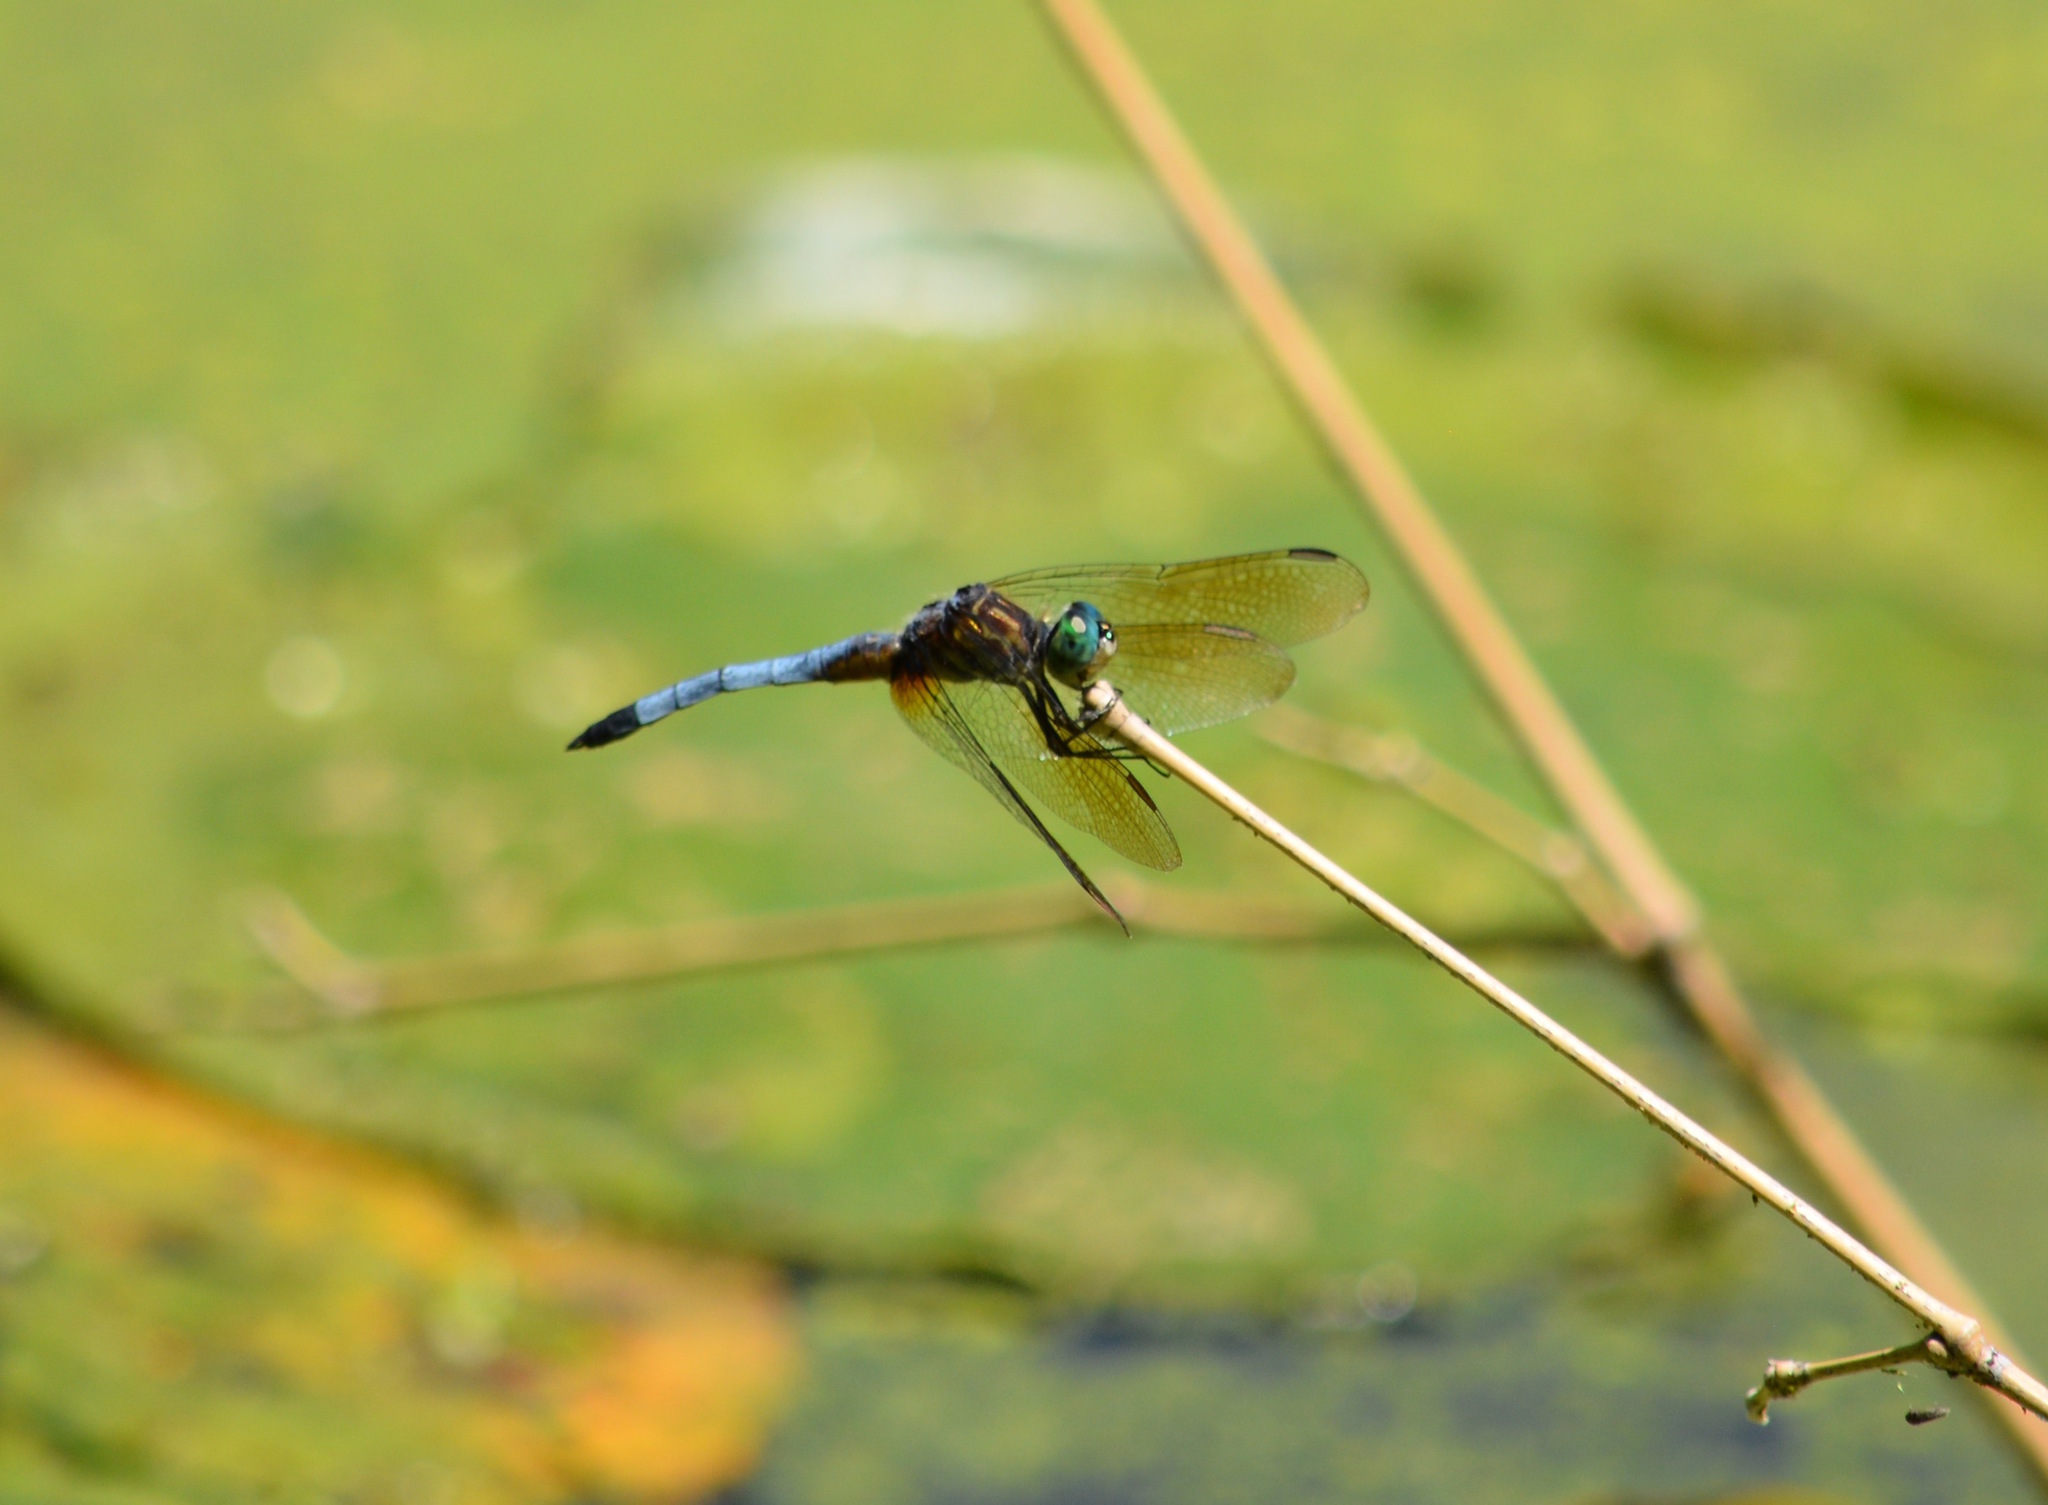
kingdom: Animalia
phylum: Arthropoda
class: Insecta
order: Odonata
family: Libellulidae
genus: Pachydiplax
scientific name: Pachydiplax longipennis
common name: Blue dasher
